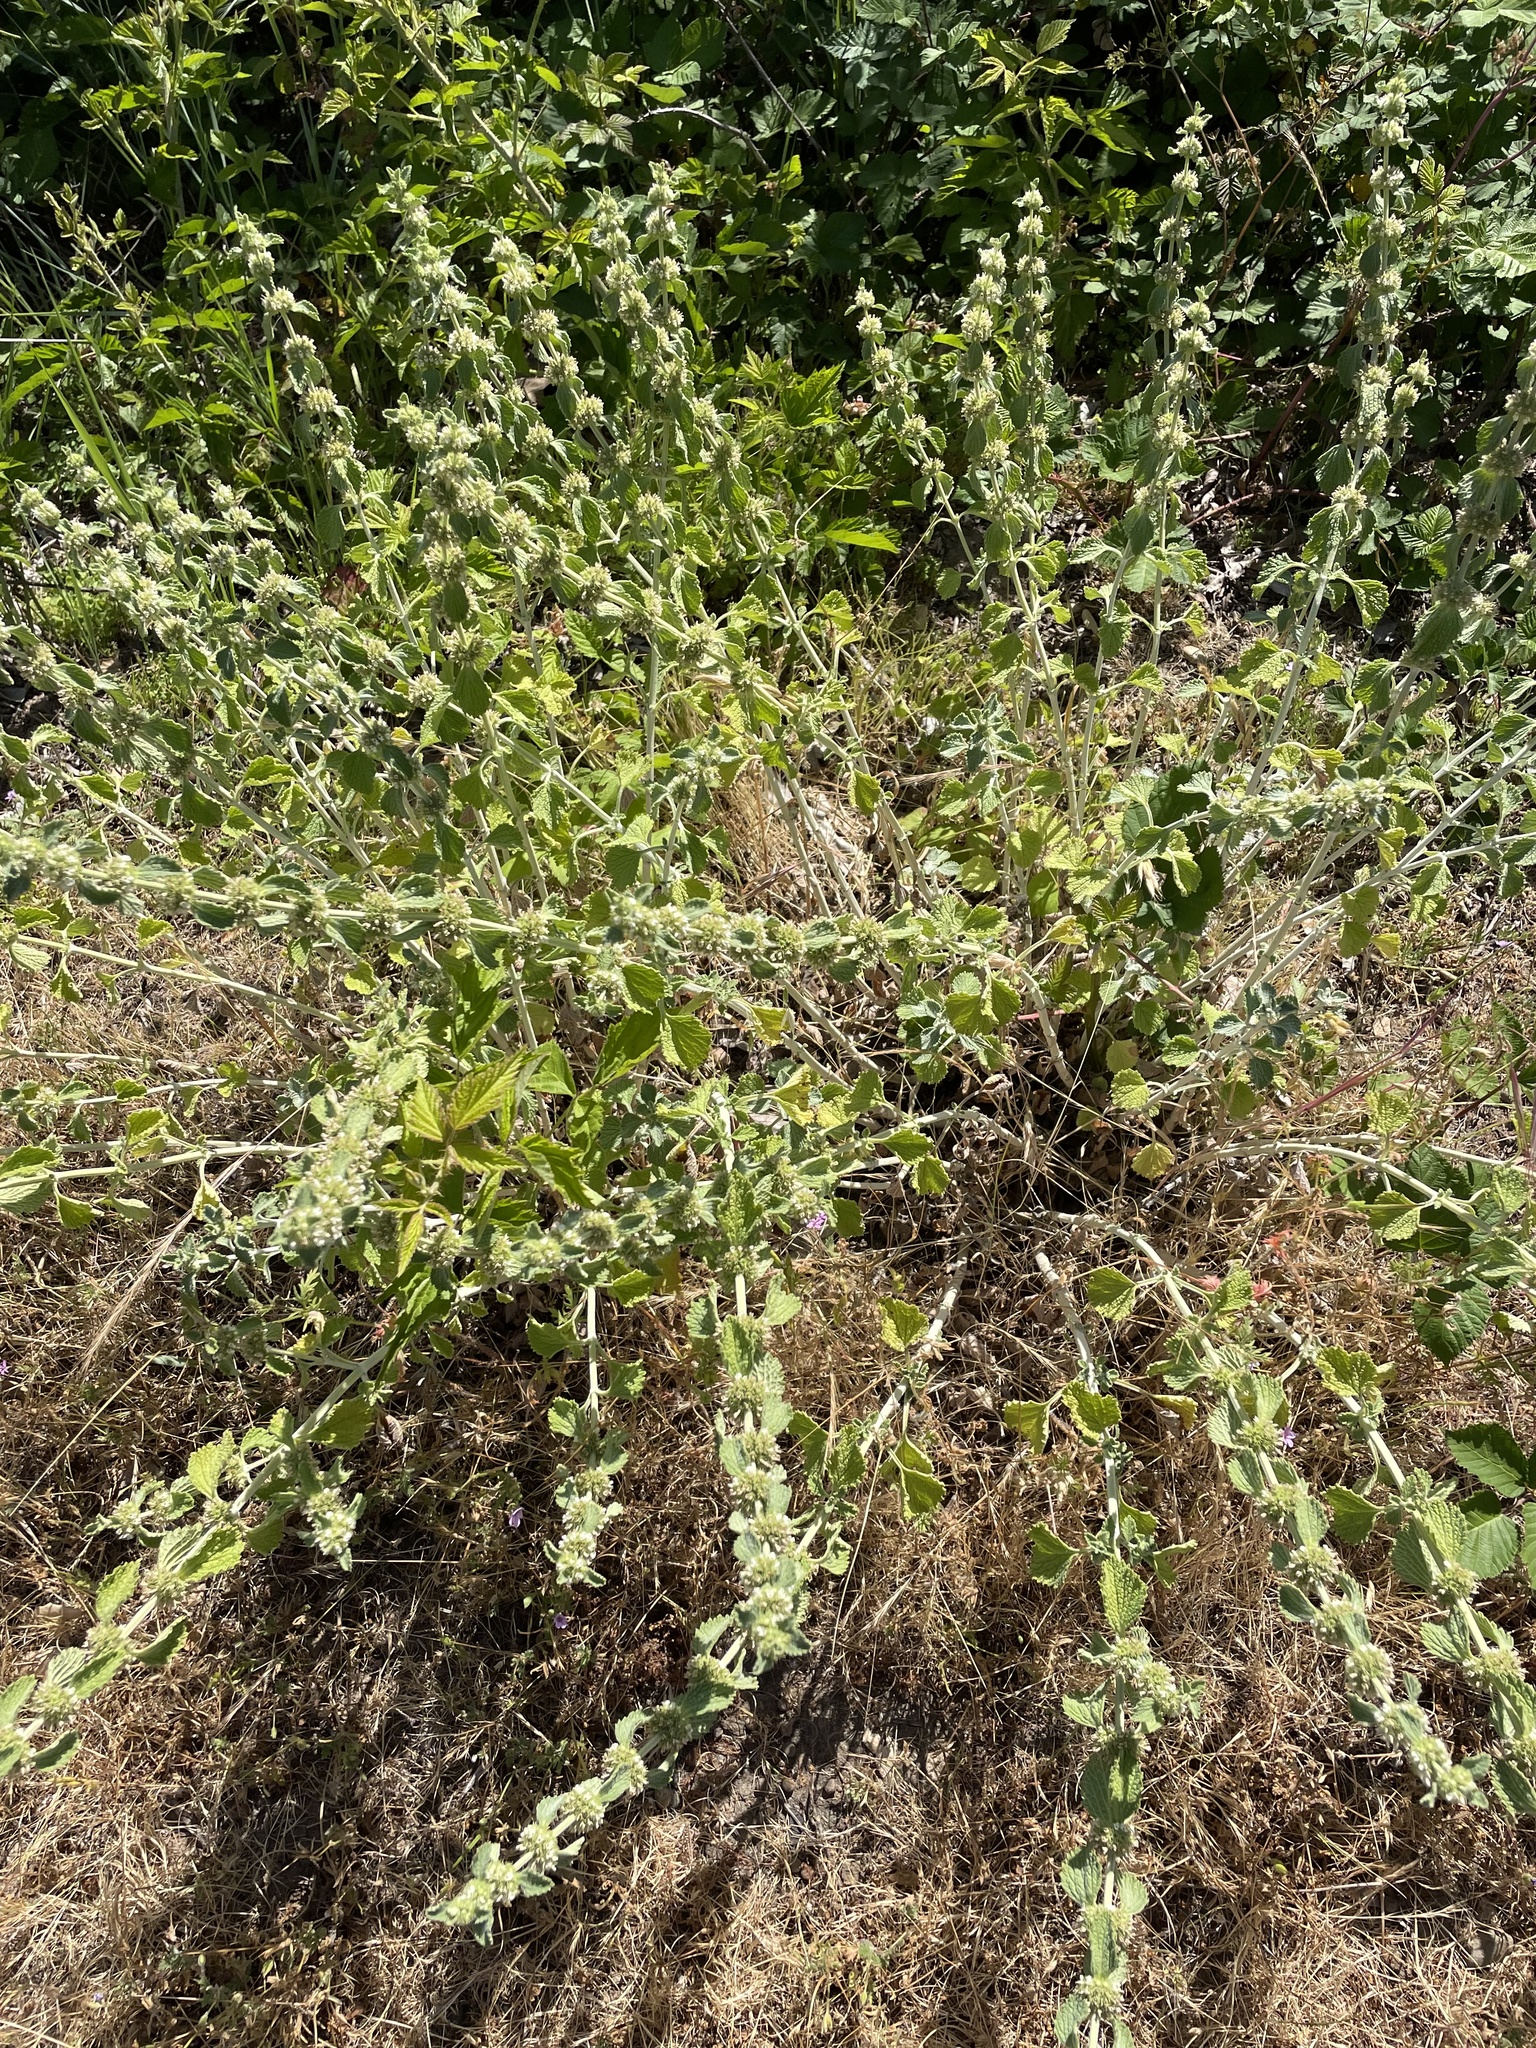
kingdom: Plantae
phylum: Tracheophyta
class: Magnoliopsida
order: Lamiales
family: Lamiaceae
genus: Marrubium
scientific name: Marrubium vulgare
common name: Horehound
